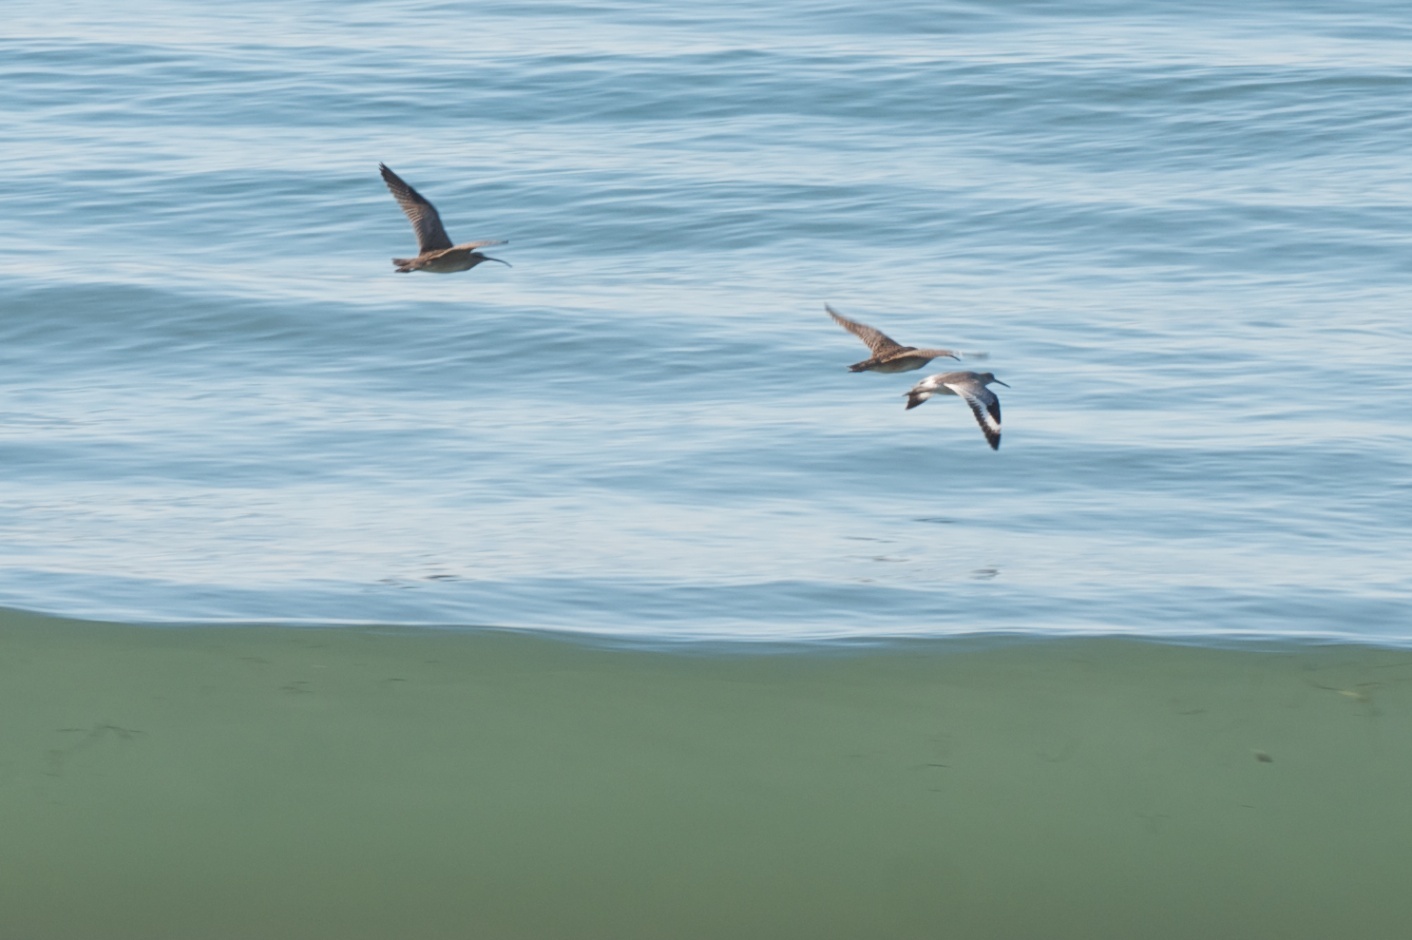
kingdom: Animalia
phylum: Chordata
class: Aves
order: Charadriiformes
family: Scolopacidae
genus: Numenius
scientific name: Numenius phaeopus
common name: Whimbrel
